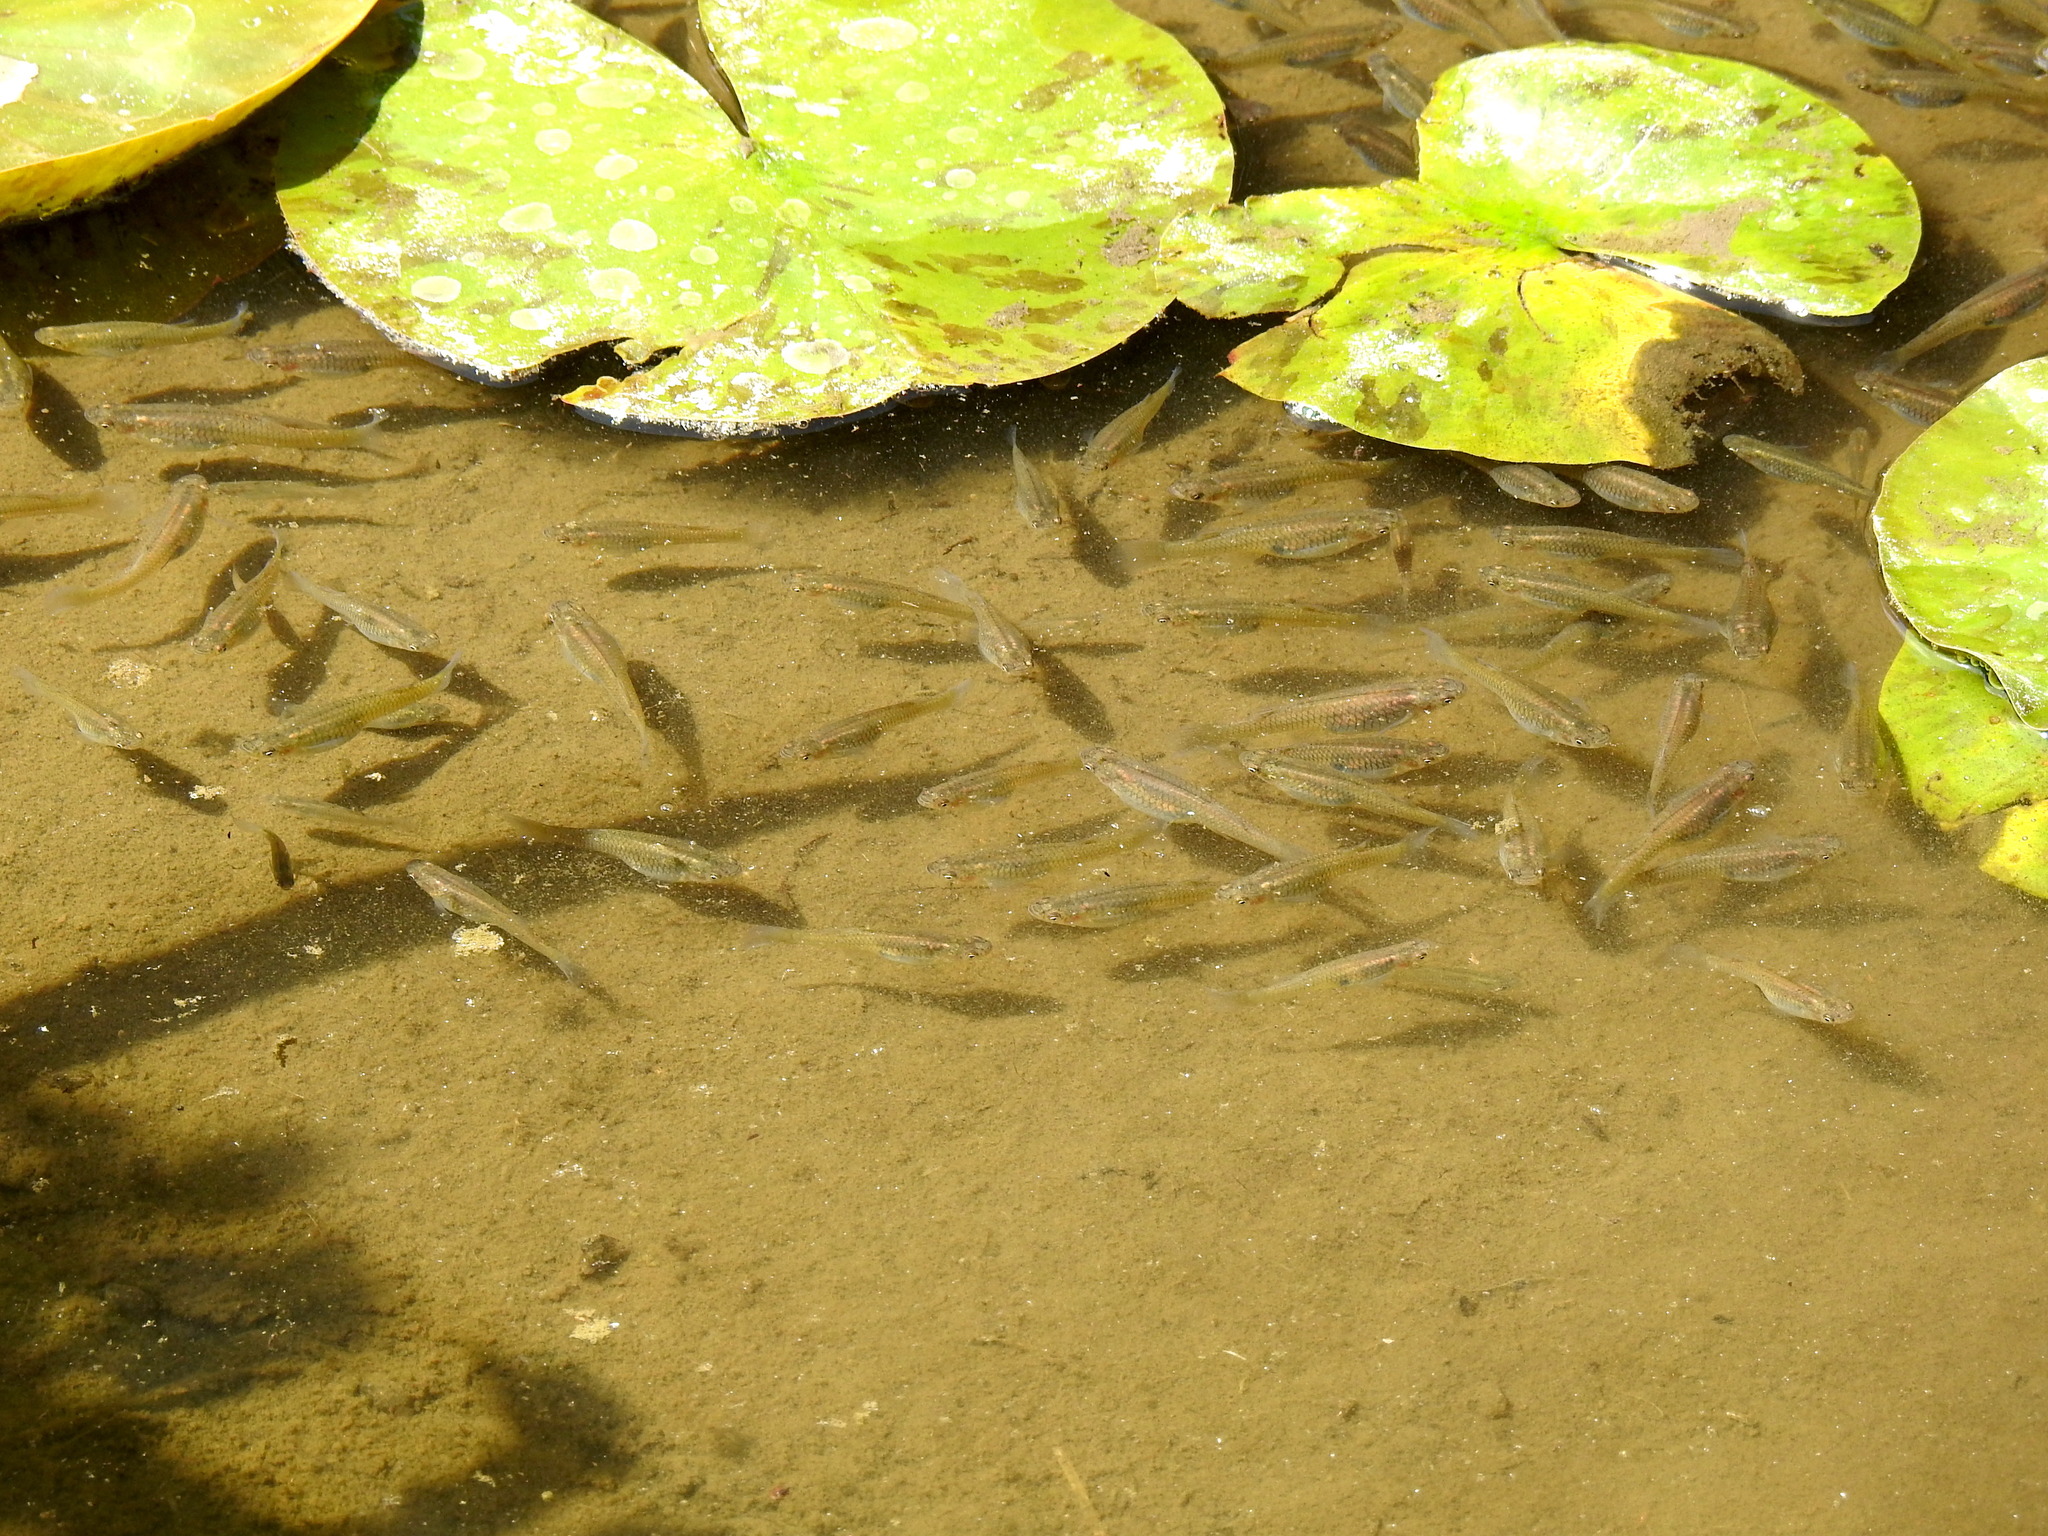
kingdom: Animalia
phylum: Chordata
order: Cyprinodontiformes
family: Poeciliidae
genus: Gambusia
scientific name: Gambusia affinis
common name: Mosquitofish
